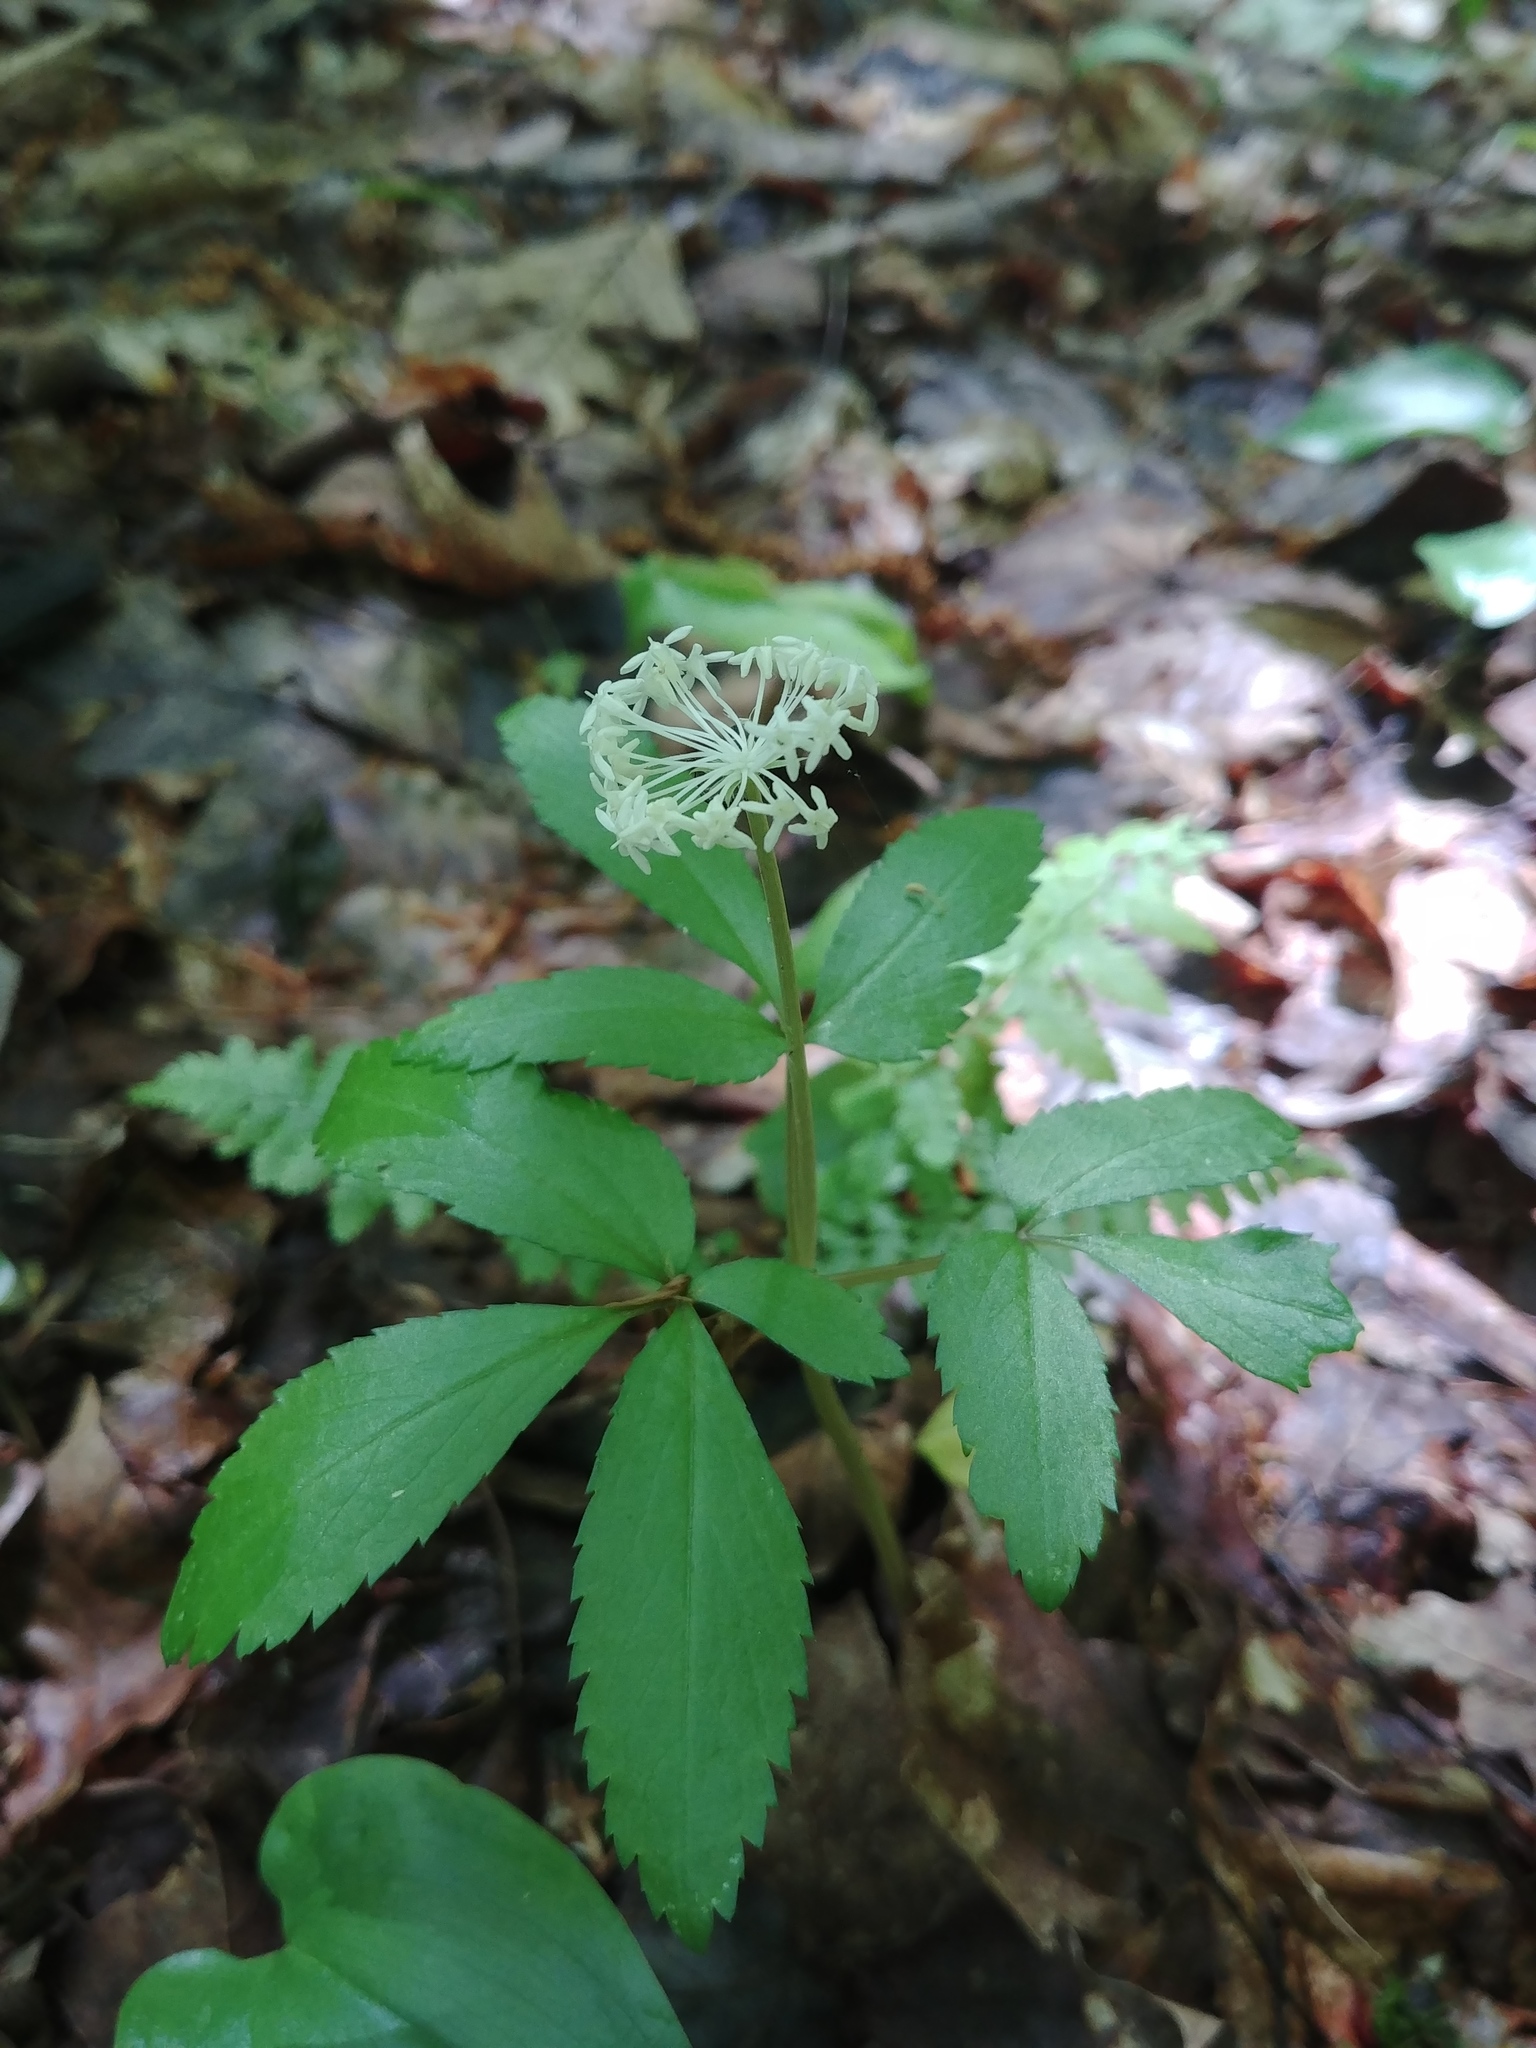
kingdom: Plantae
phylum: Tracheophyta
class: Magnoliopsida
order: Apiales
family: Araliaceae
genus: Panax
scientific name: Panax trifolius
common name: Dwarf ginseng
